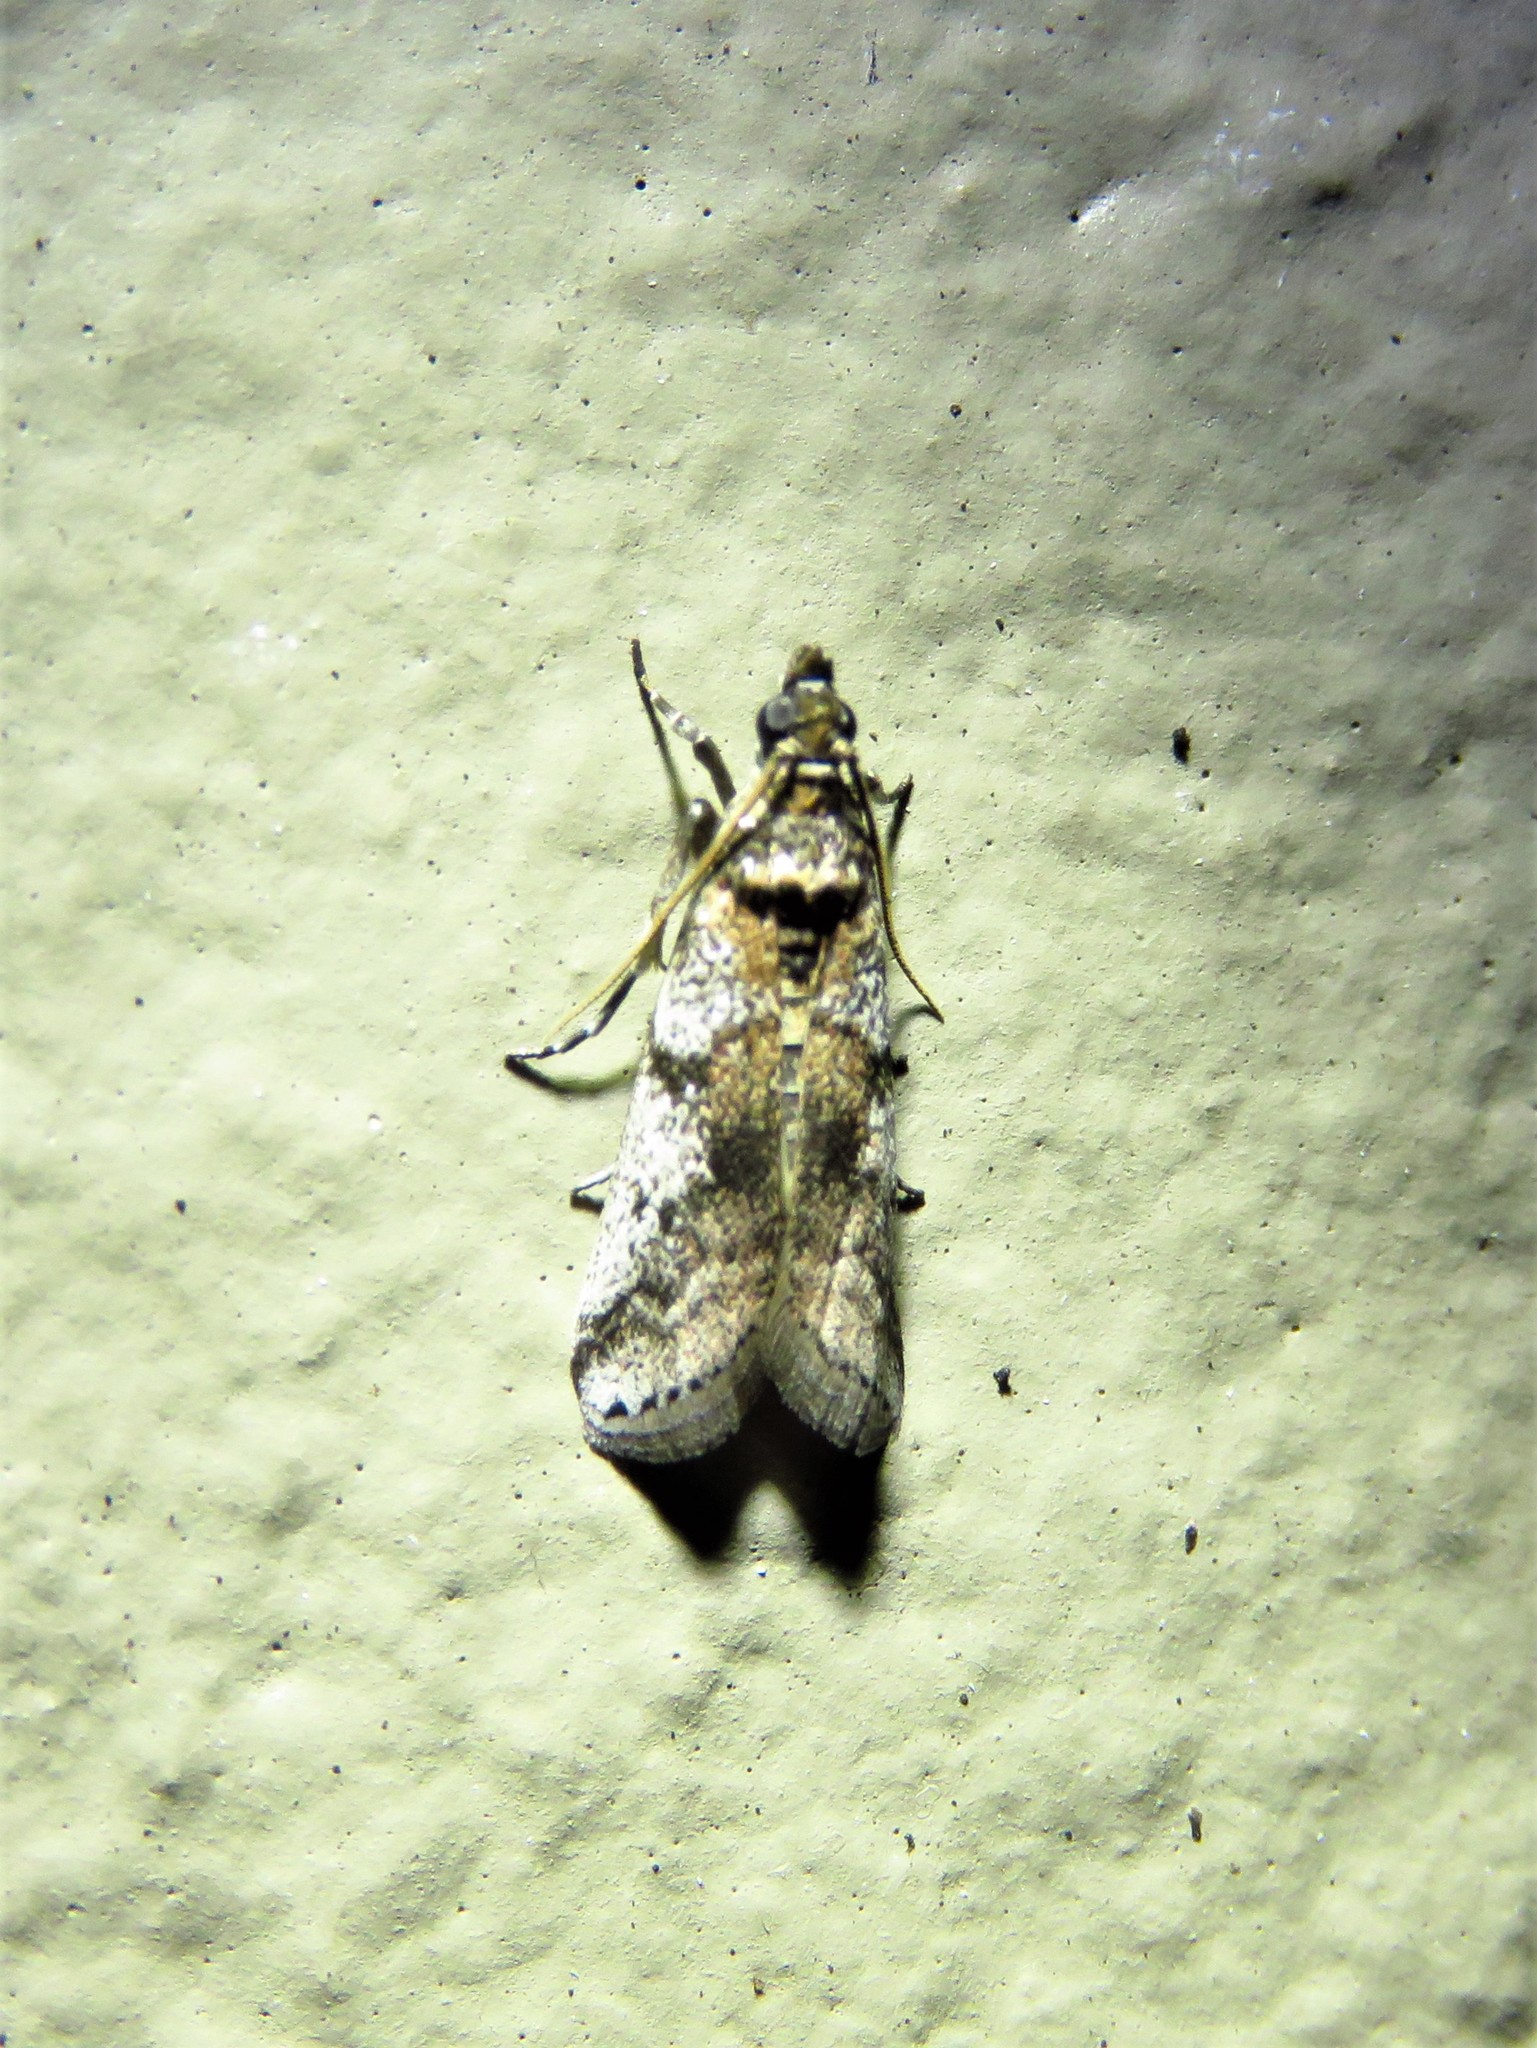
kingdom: Animalia
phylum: Arthropoda
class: Insecta
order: Lepidoptera
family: Pyralidae
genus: Laetilia
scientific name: Laetilia coccidivora
